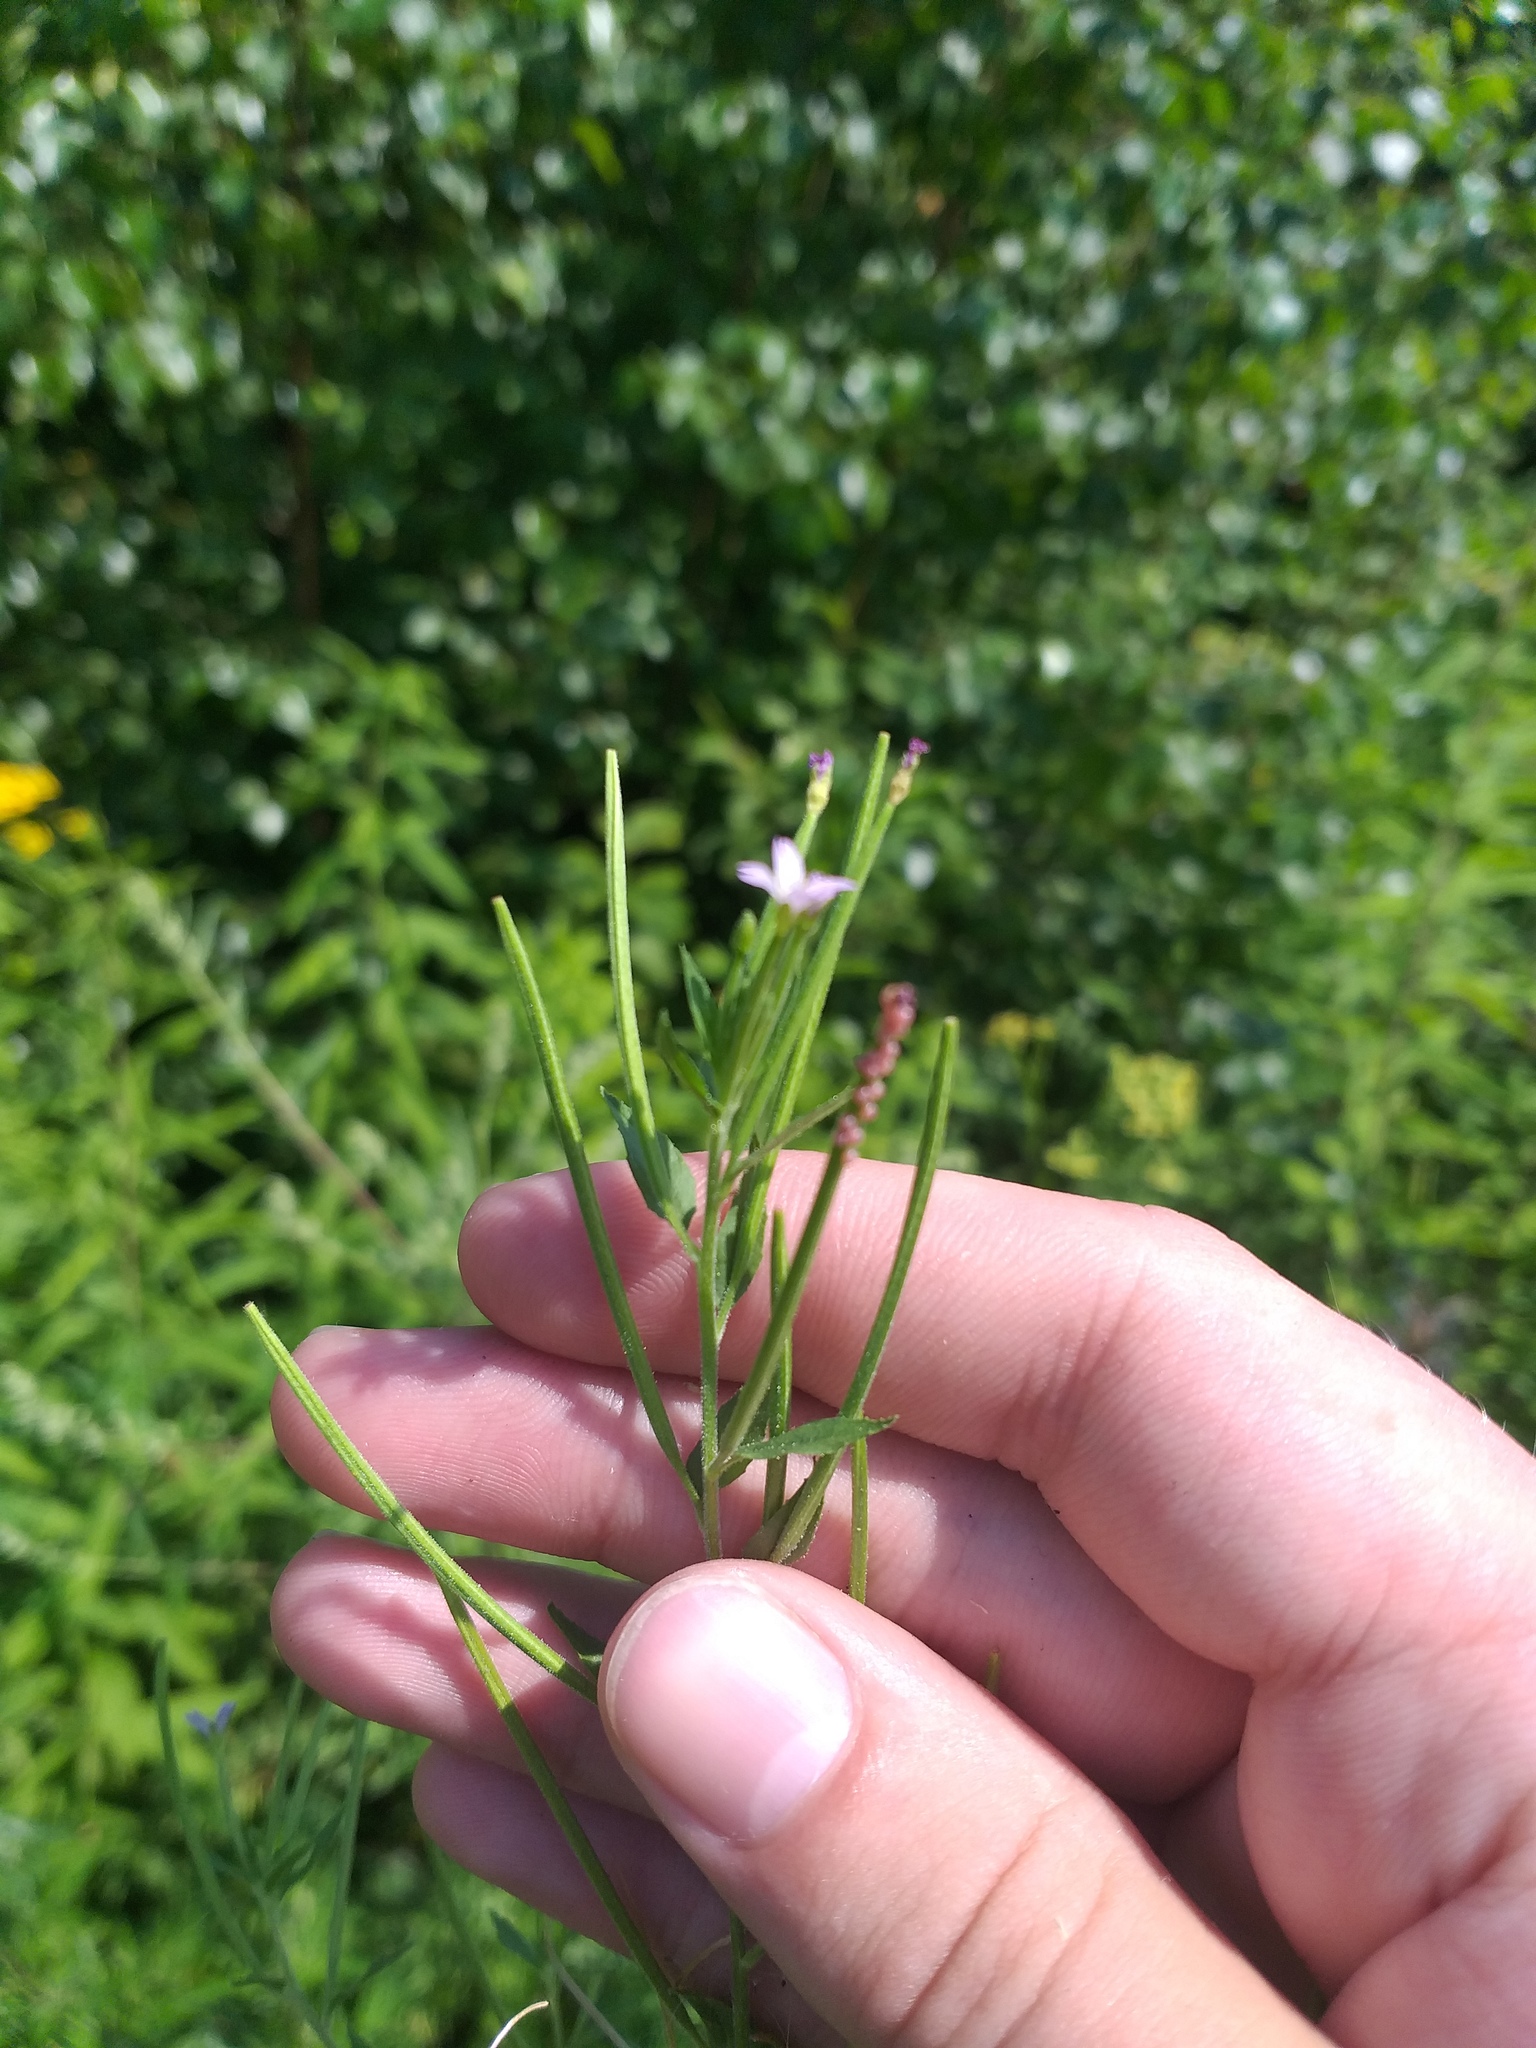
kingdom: Plantae
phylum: Tracheophyta
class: Magnoliopsida
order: Myrtales
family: Onagraceae
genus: Epilobium
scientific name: Epilobium ciliatum
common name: American willowherb
